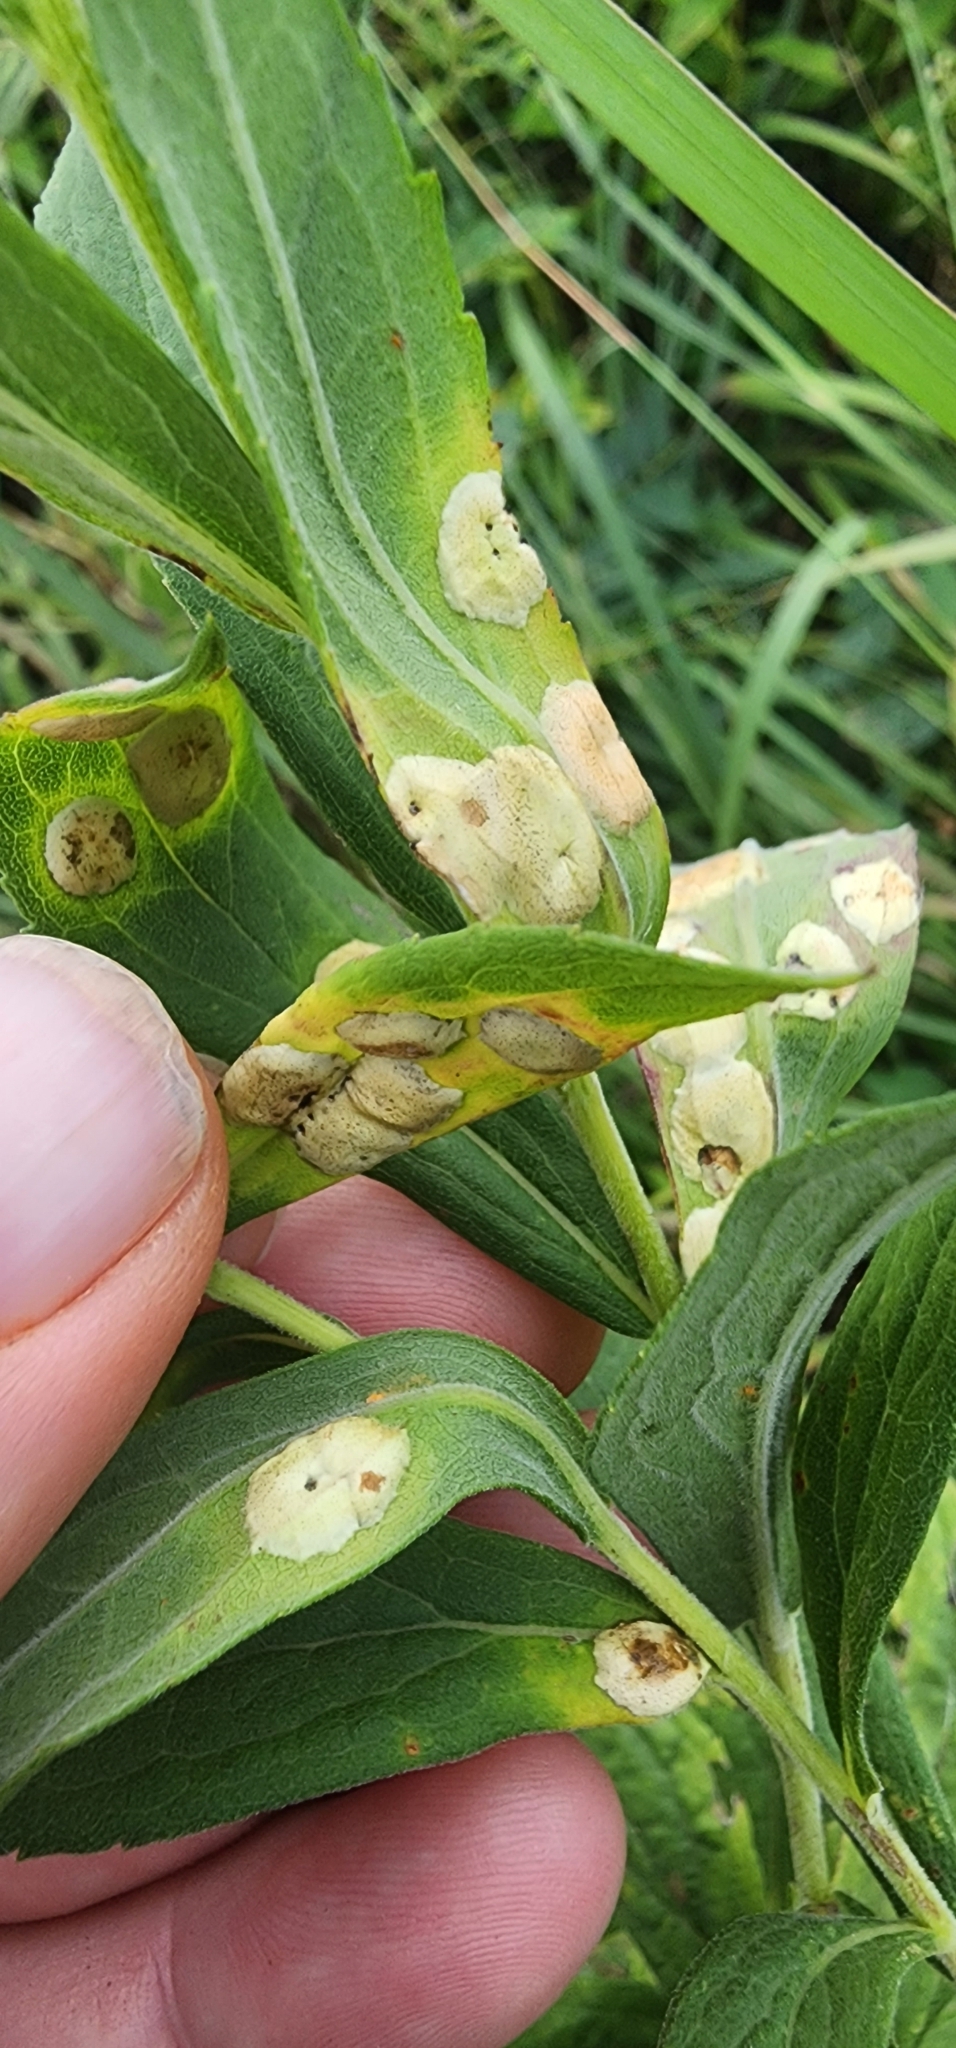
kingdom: Animalia
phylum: Arthropoda
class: Insecta
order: Diptera
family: Cecidomyiidae
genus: Asteromyia
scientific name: Asteromyia carbonifera
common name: Carbonifera goldenrod gall midge
